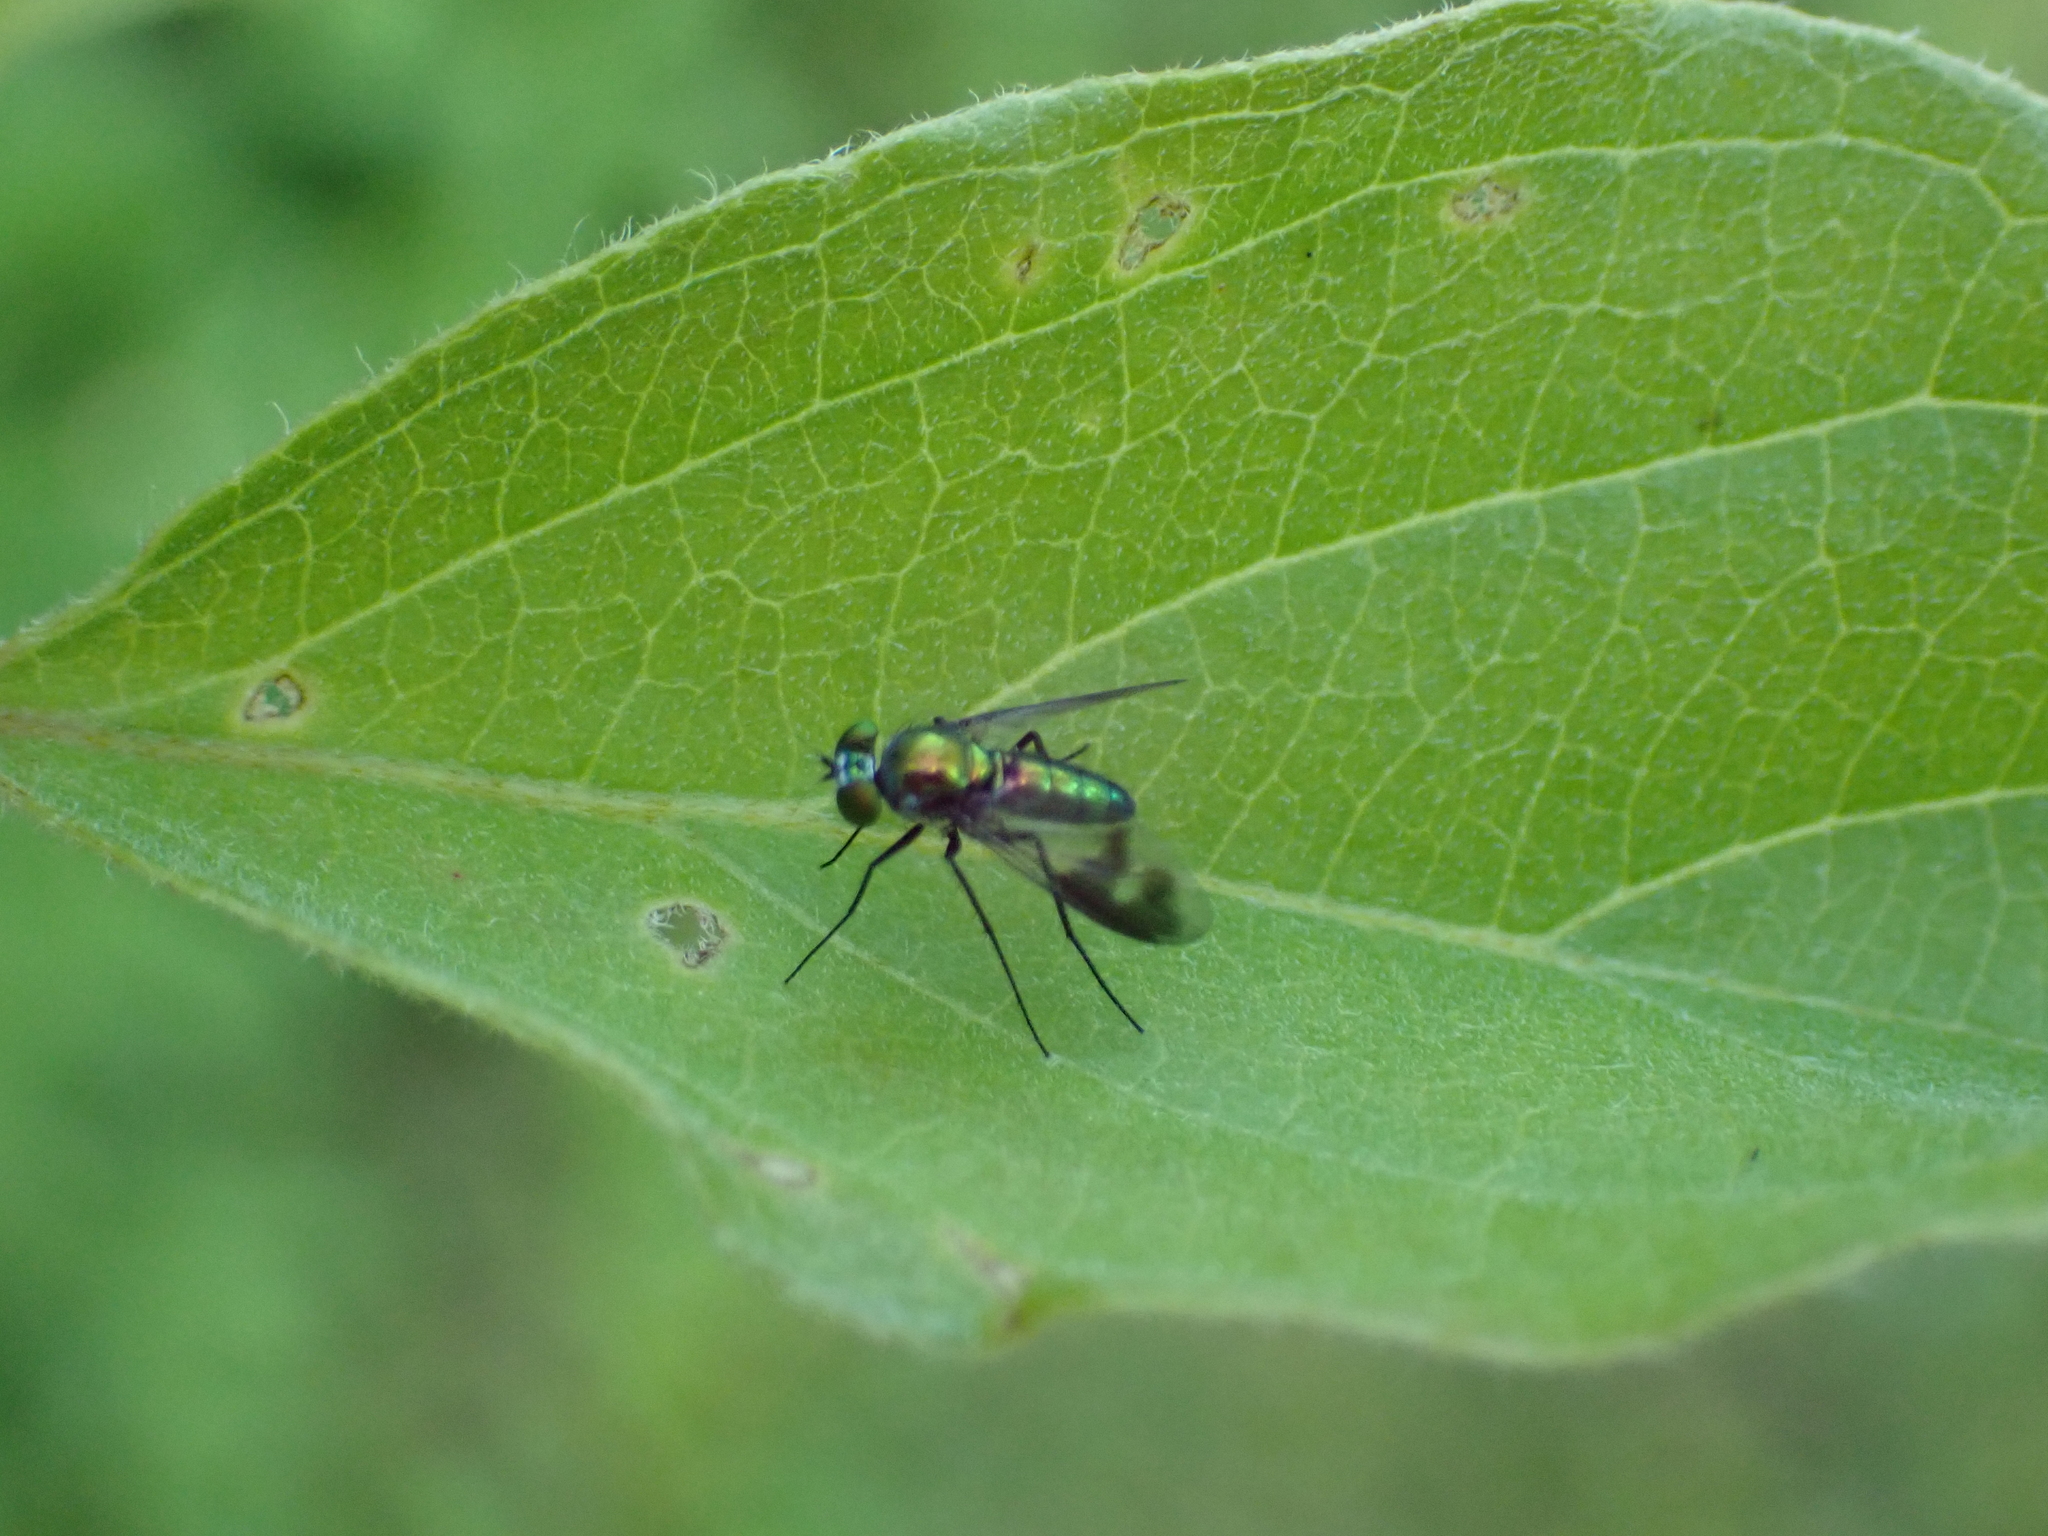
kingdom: Animalia
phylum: Arthropoda
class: Insecta
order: Diptera
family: Dolichopodidae
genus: Condylostylus
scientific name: Condylostylus patibulatus
